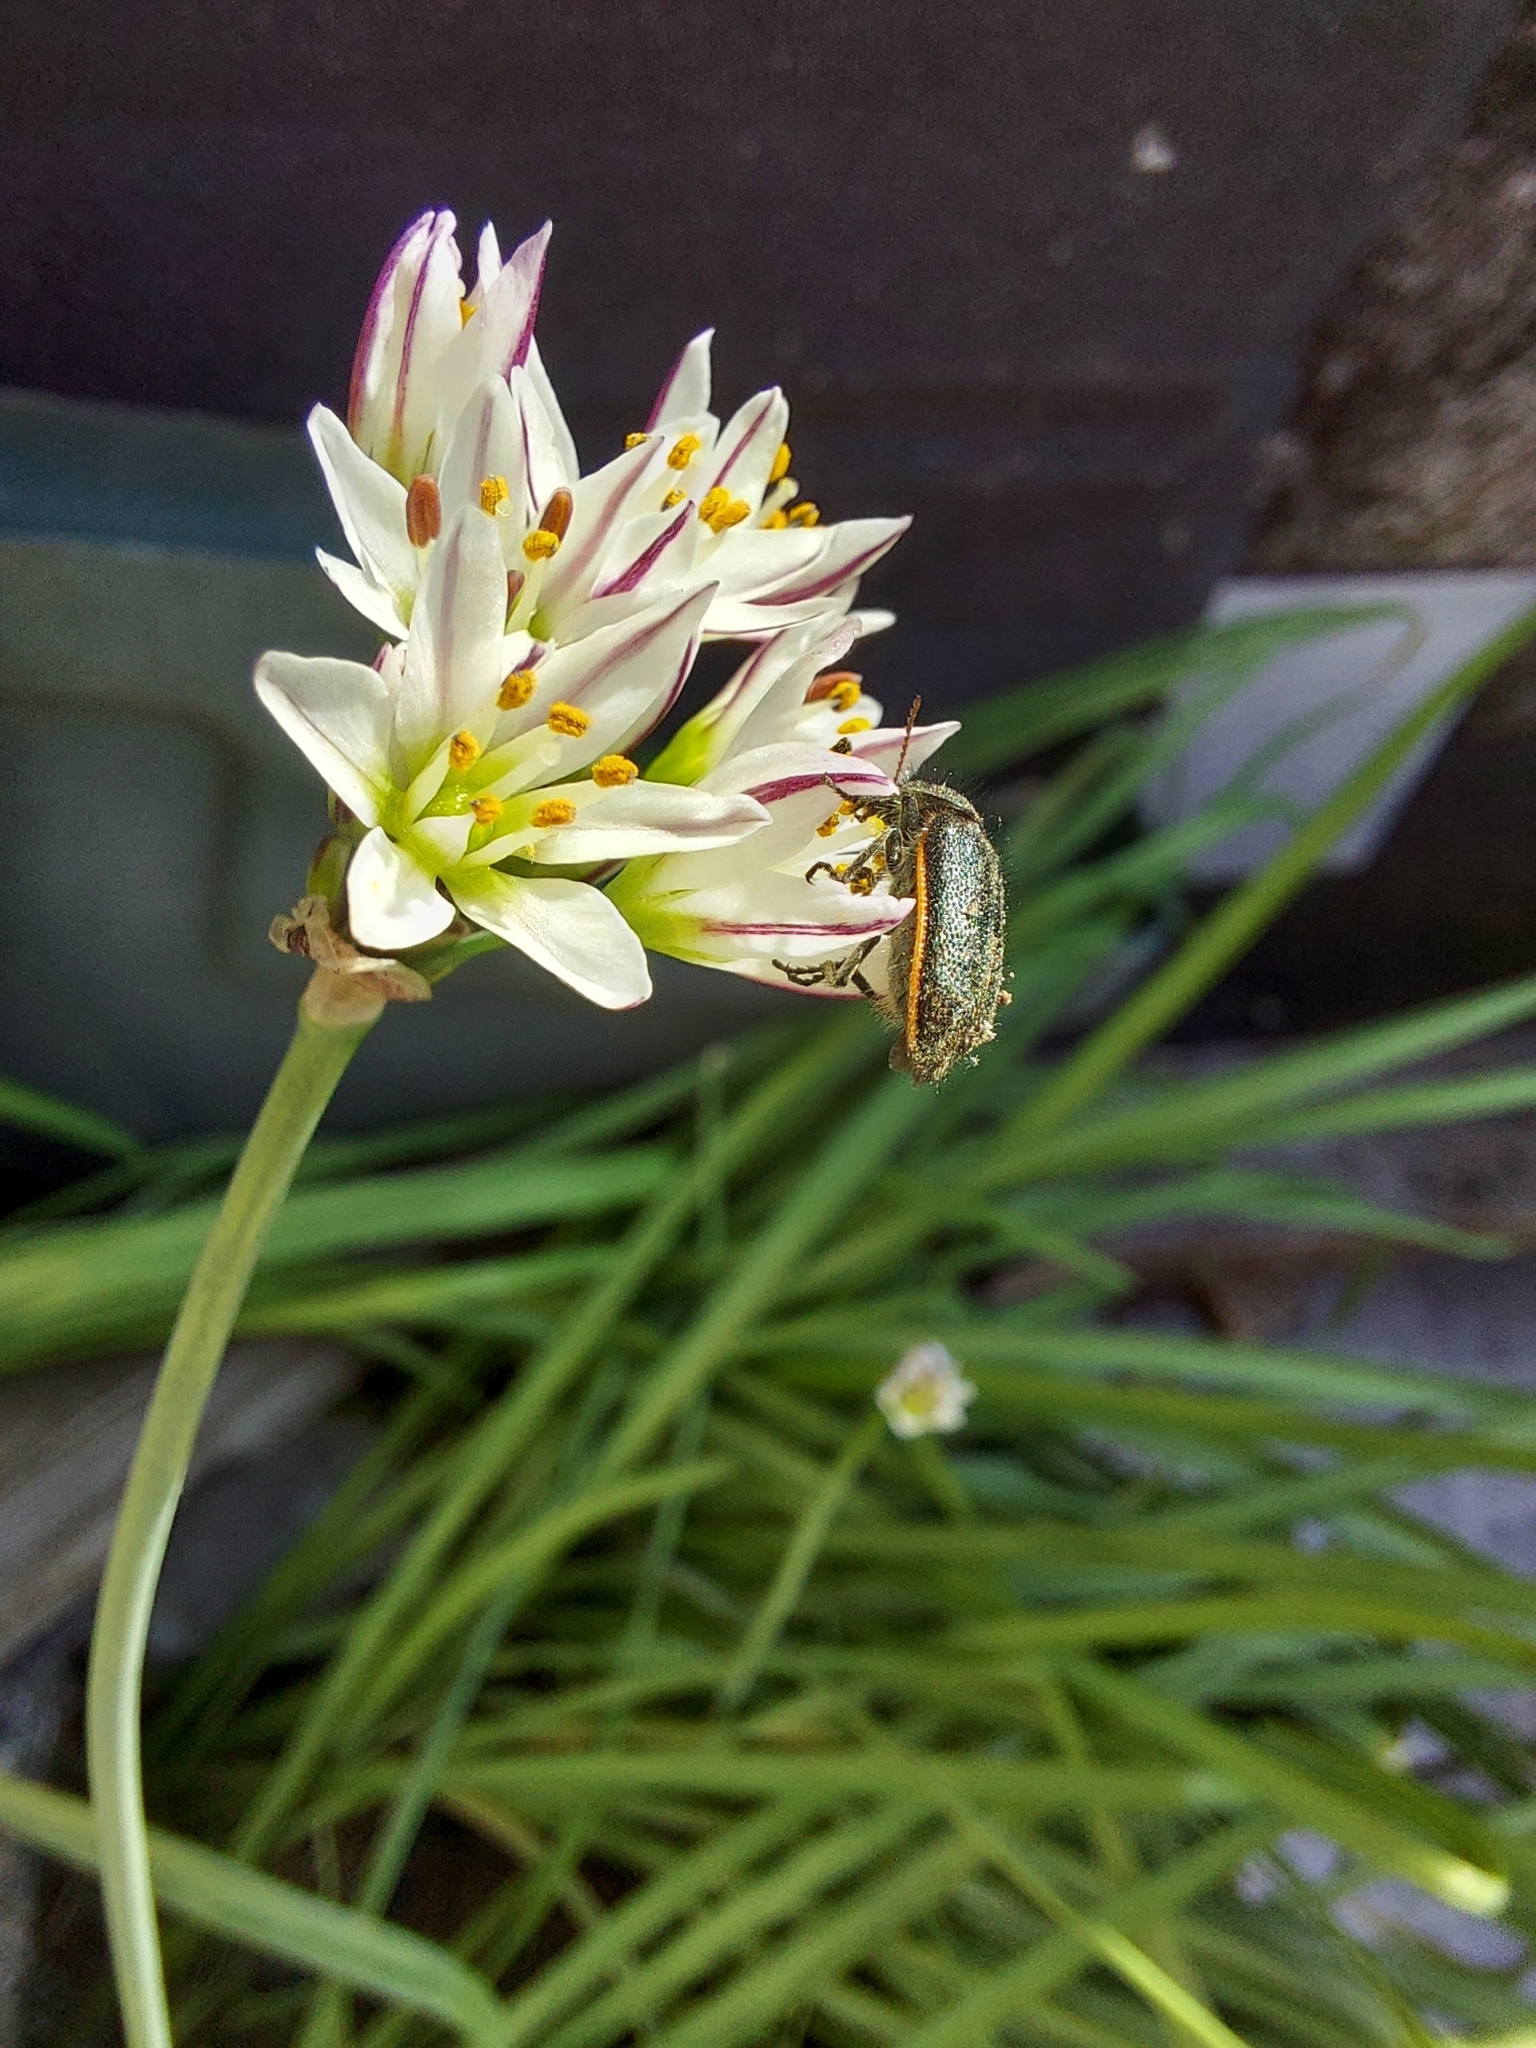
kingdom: Plantae
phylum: Tracheophyta
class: Liliopsida
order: Asparagales
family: Amaryllidaceae
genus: Nothoscordum
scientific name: Nothoscordum gracile
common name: Slender false garlic
